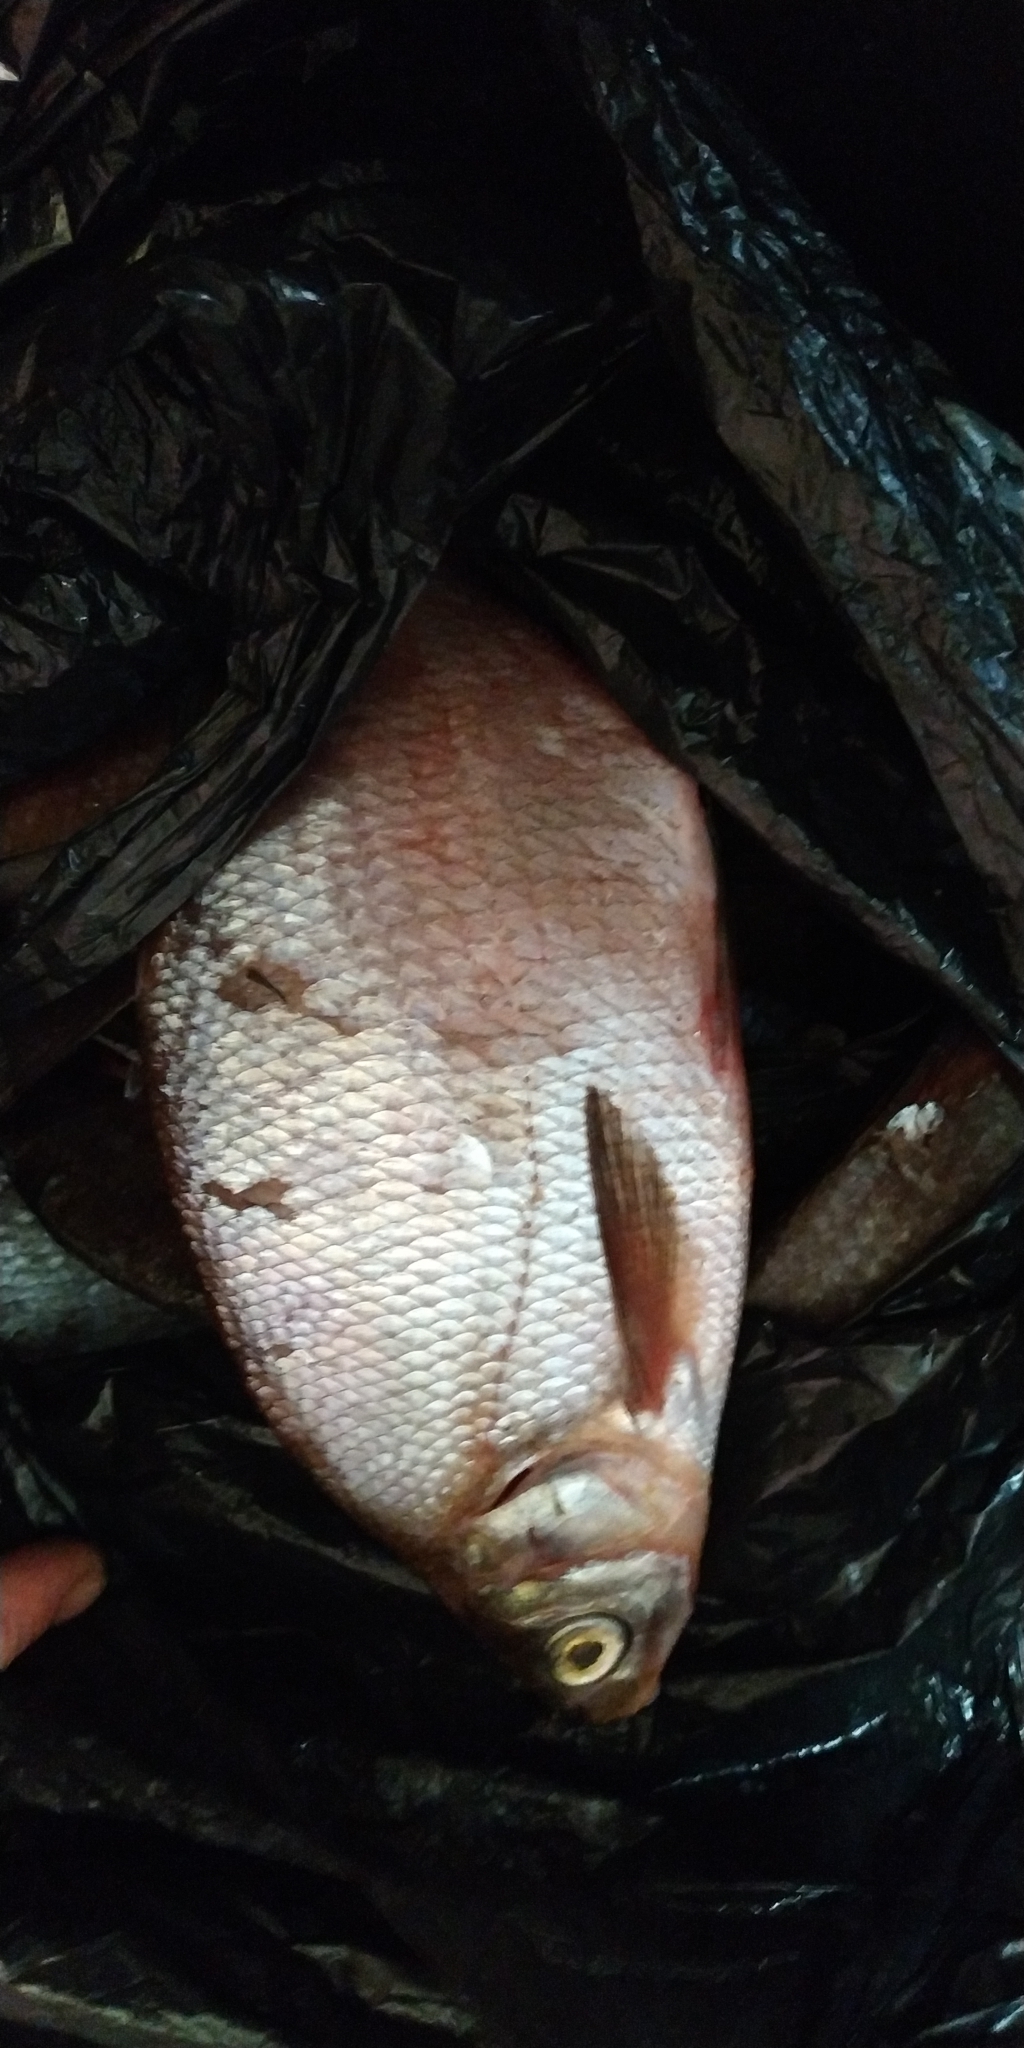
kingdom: Animalia
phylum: Chordata
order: Cypriniformes
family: Cyprinidae
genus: Abramis
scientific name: Abramis brama
